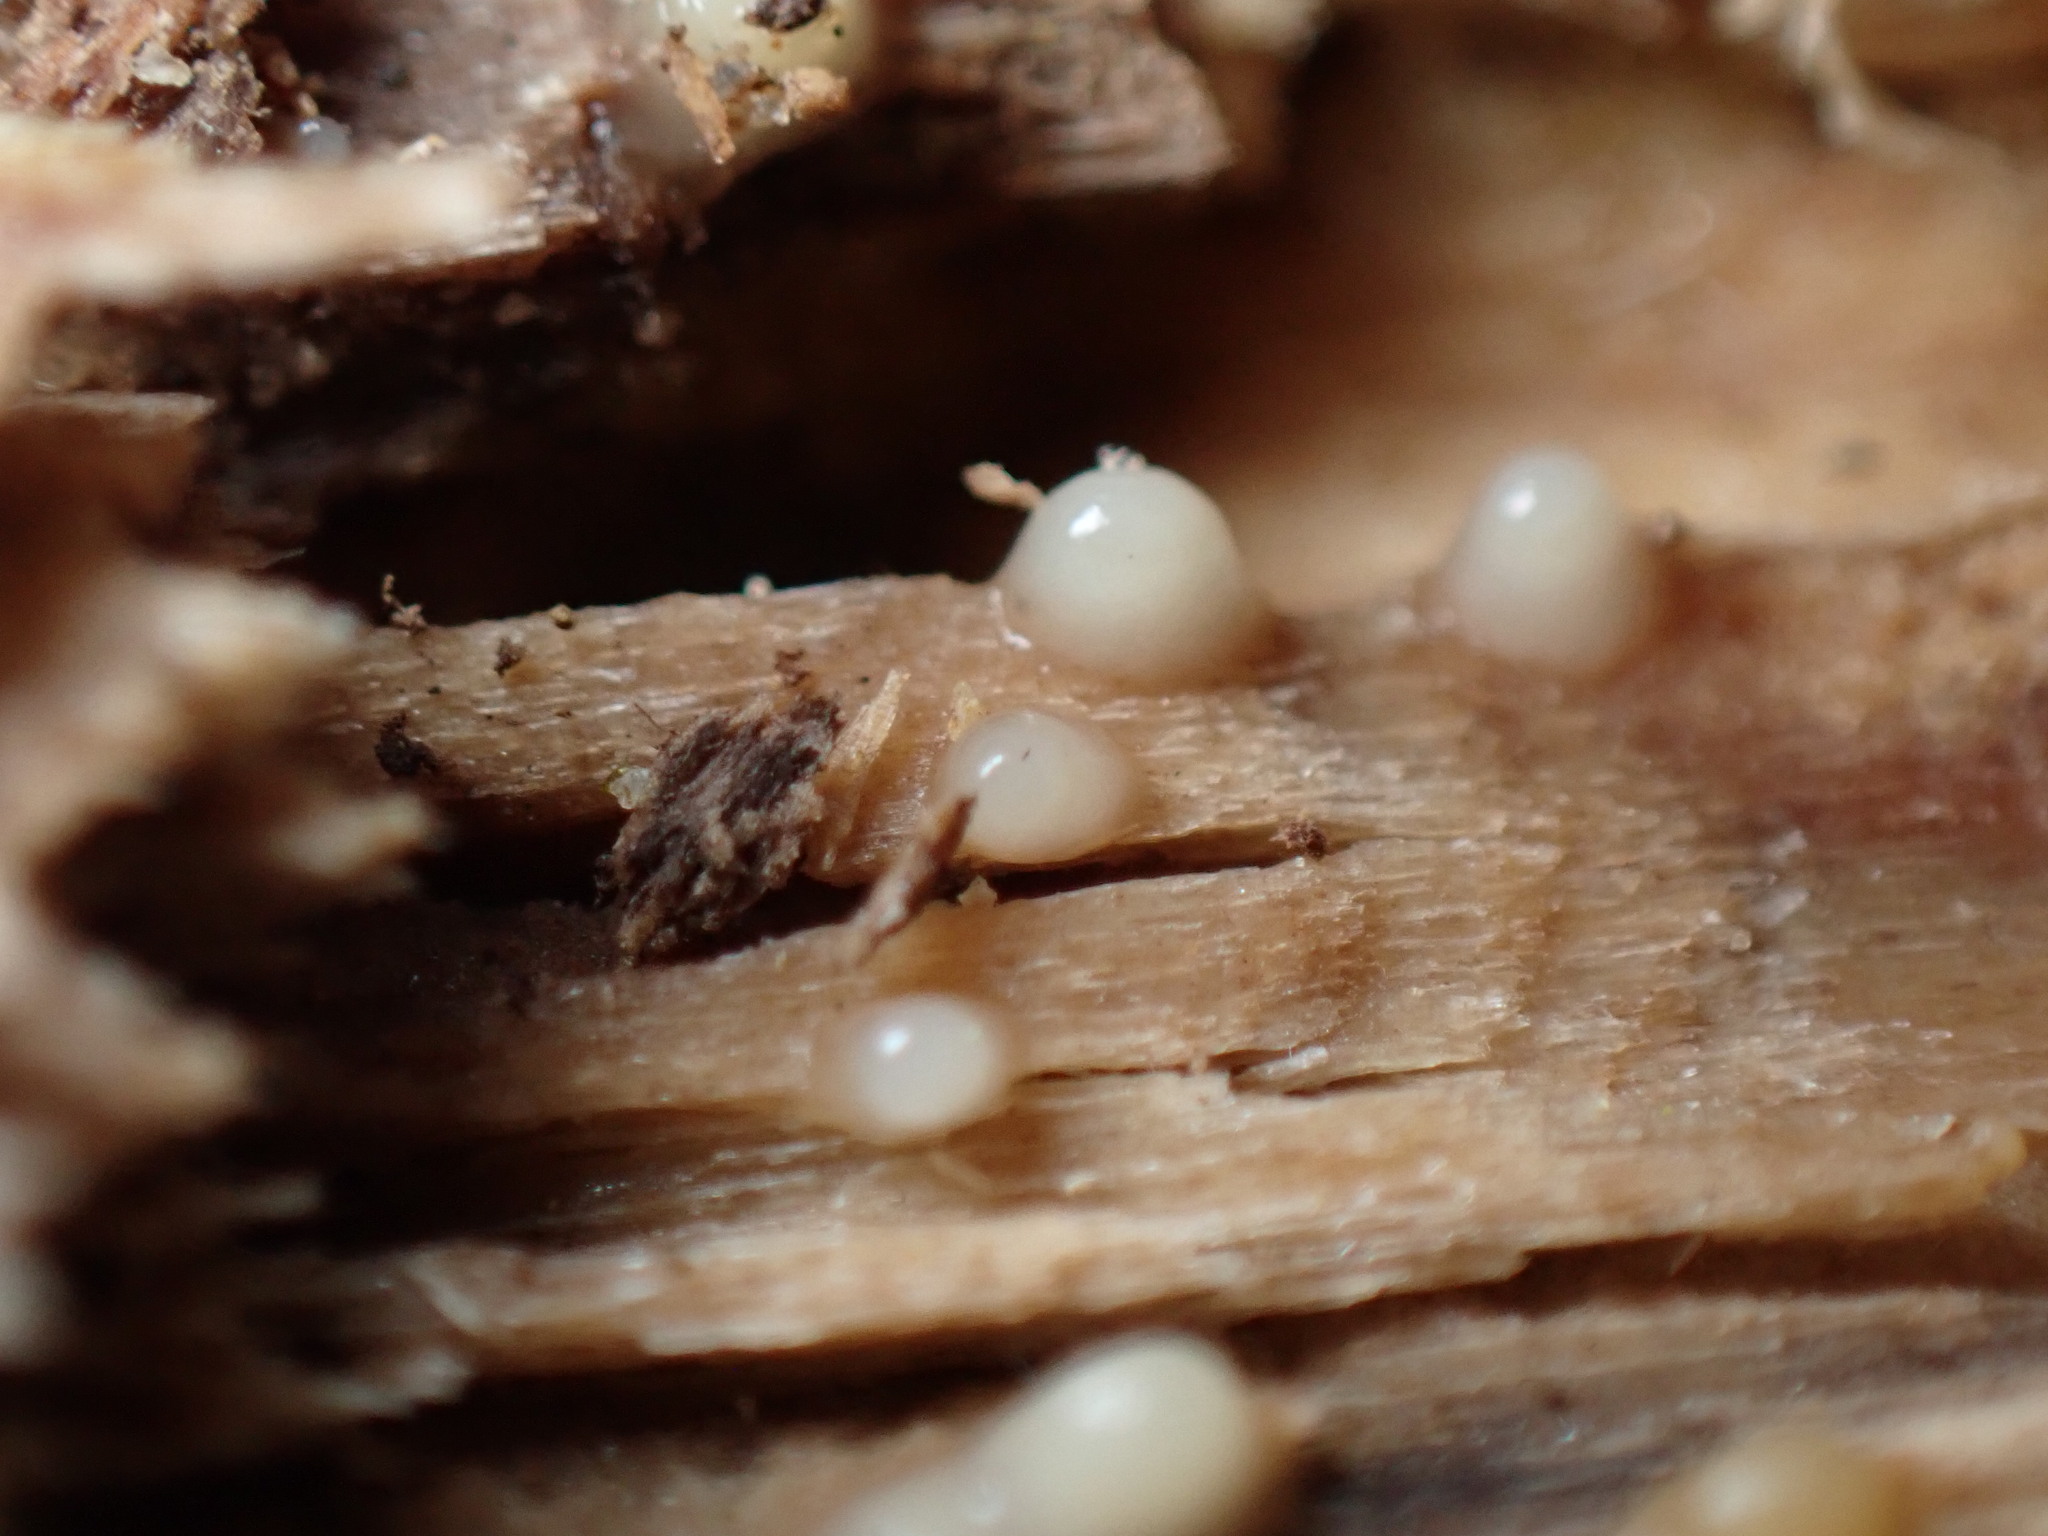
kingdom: Fungi
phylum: Basidiomycota
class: Atractiellomycetes
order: Atractiellales
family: Phleogenaceae
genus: Helicogloea
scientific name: Helicogloea compressa
